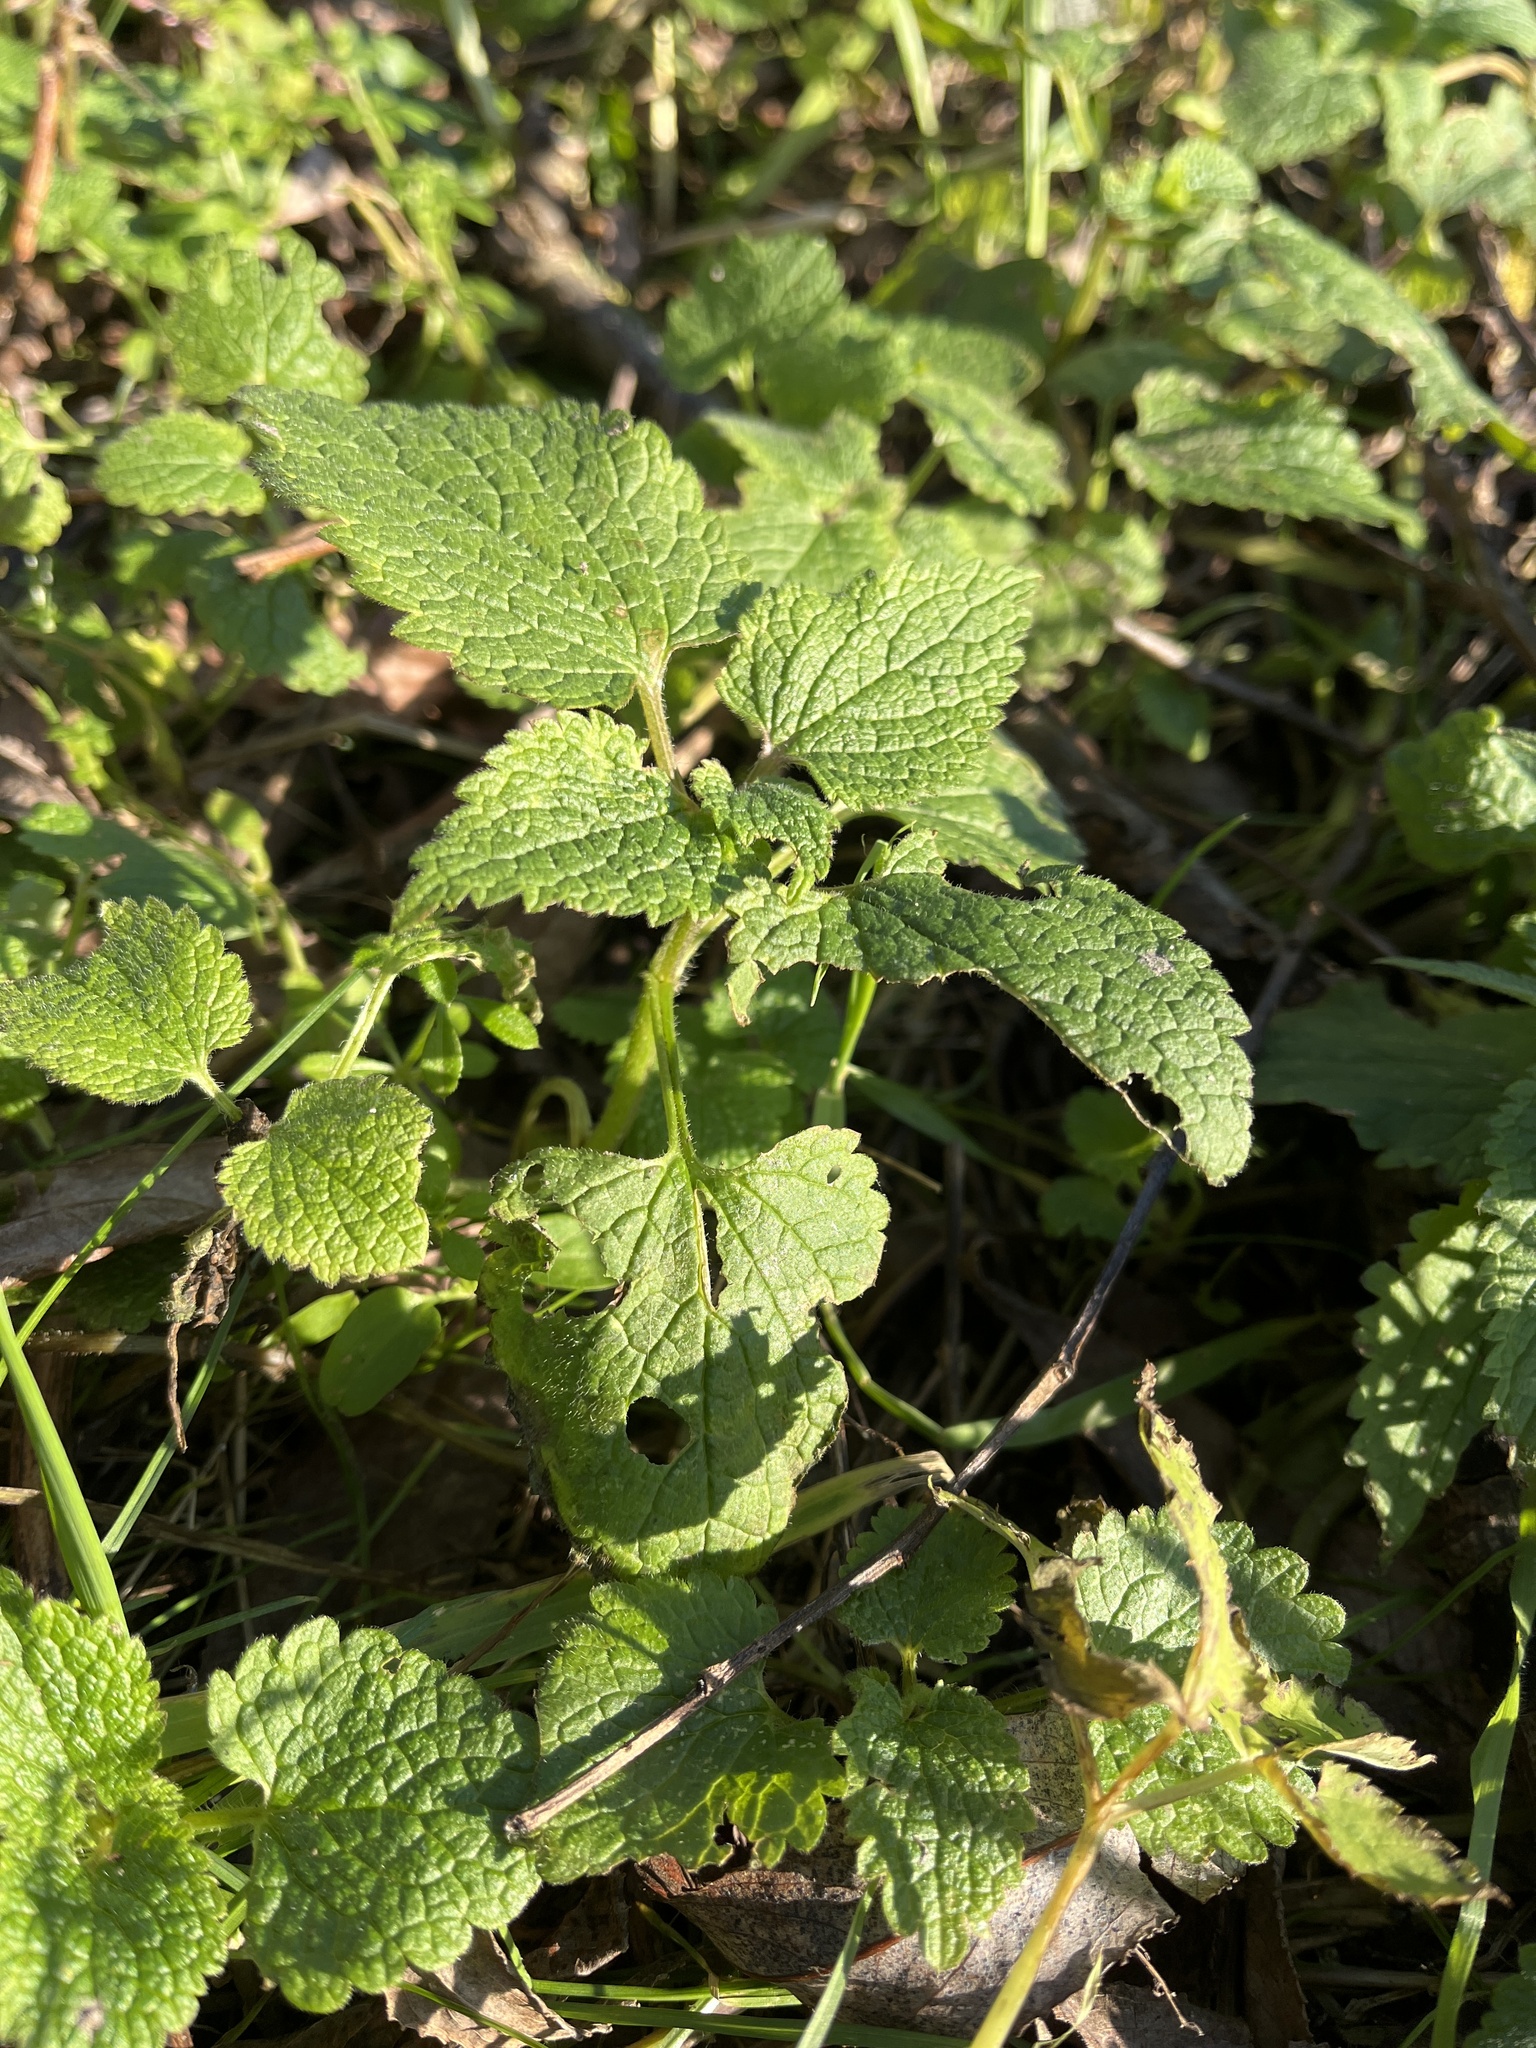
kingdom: Plantae
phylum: Tracheophyta
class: Magnoliopsida
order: Lamiales
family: Lamiaceae
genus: Lamium
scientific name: Lamium album
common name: White dead-nettle
